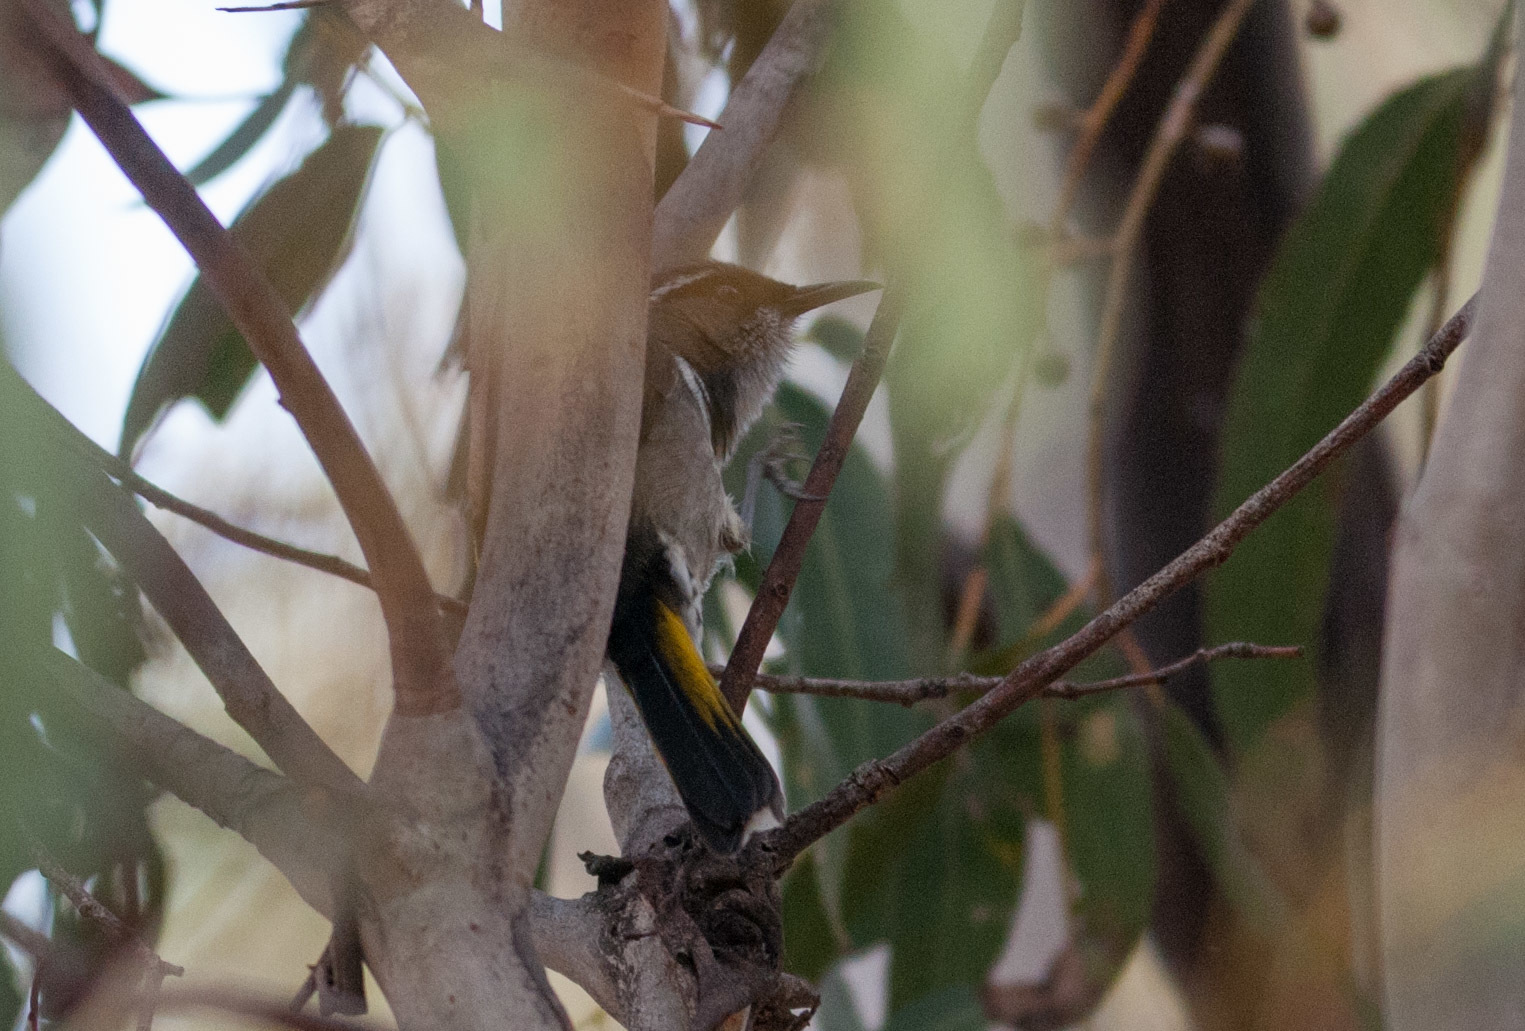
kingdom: Animalia
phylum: Chordata
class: Aves
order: Passeriformes
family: Meliphagidae
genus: Phylidonyris
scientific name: Phylidonyris pyrrhopterus
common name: Crescent honeyeater
